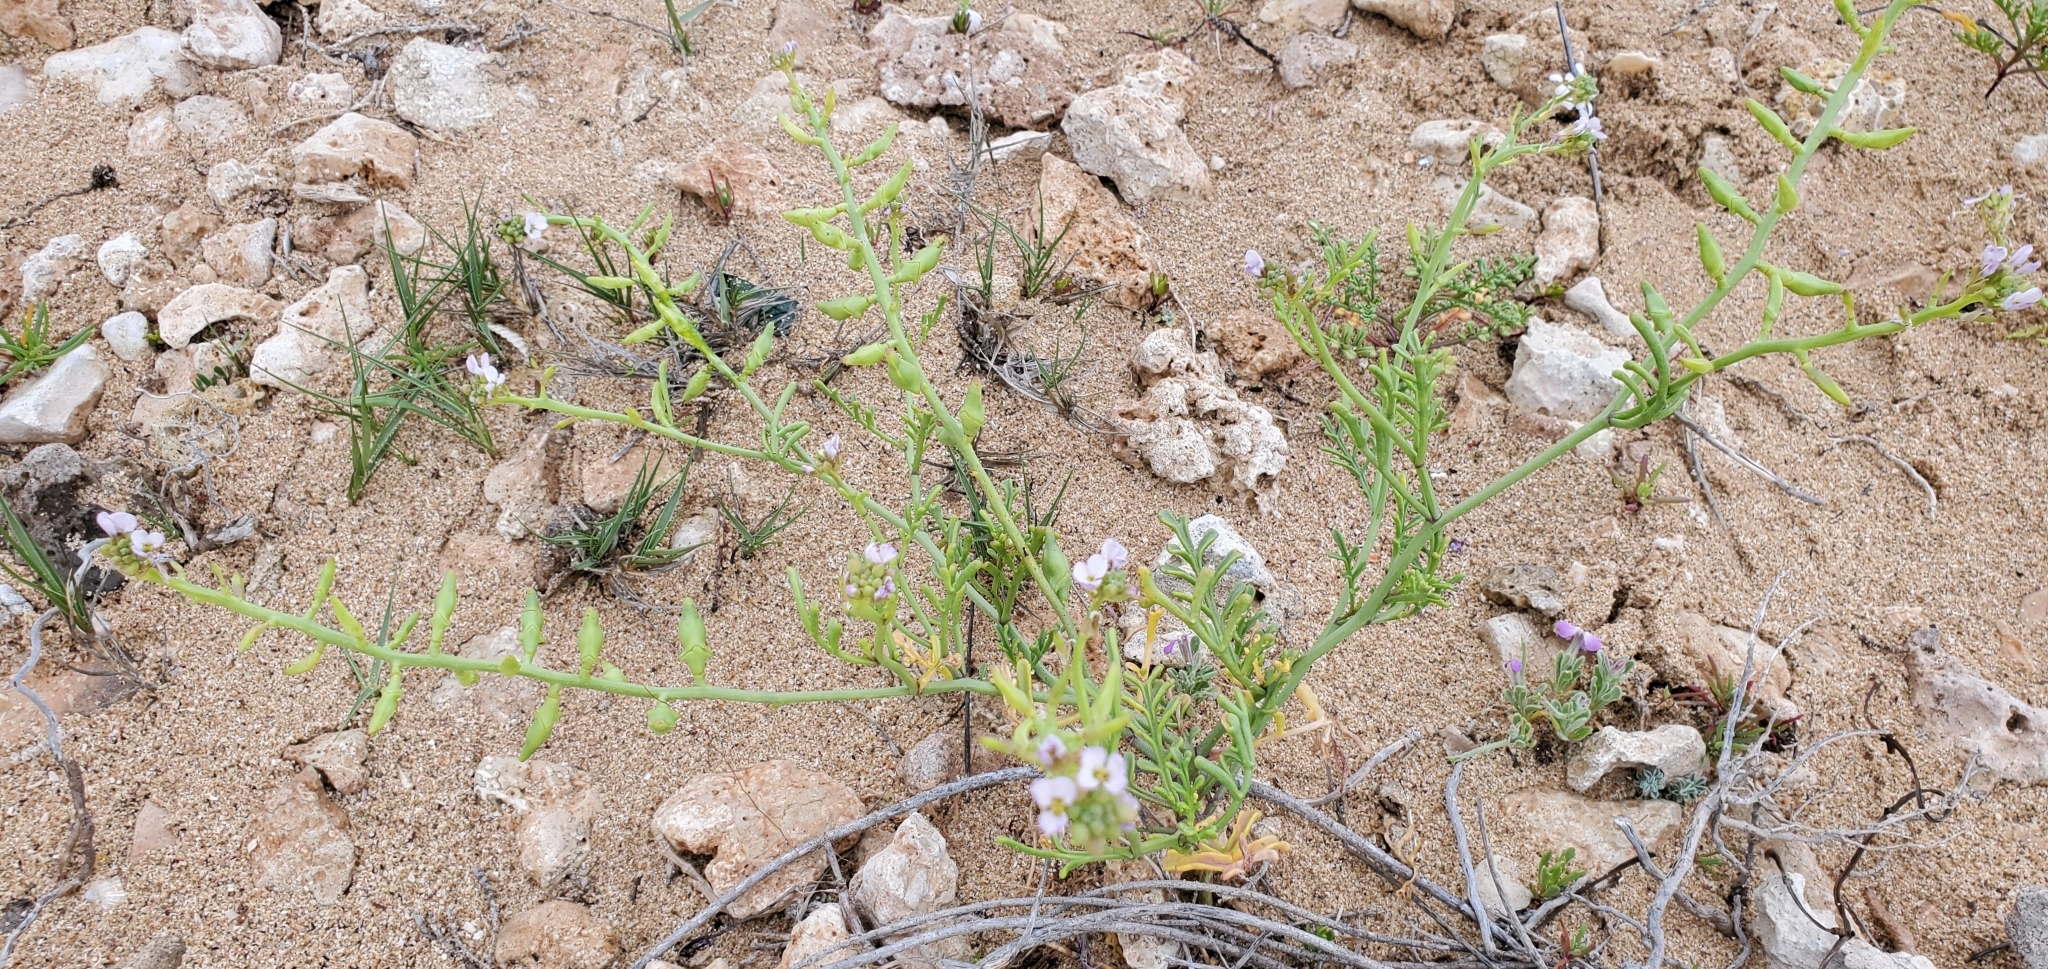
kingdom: Plantae
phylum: Tracheophyta
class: Magnoliopsida
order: Brassicales
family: Brassicaceae
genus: Cakile
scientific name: Cakile maritima
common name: Sea rocket
